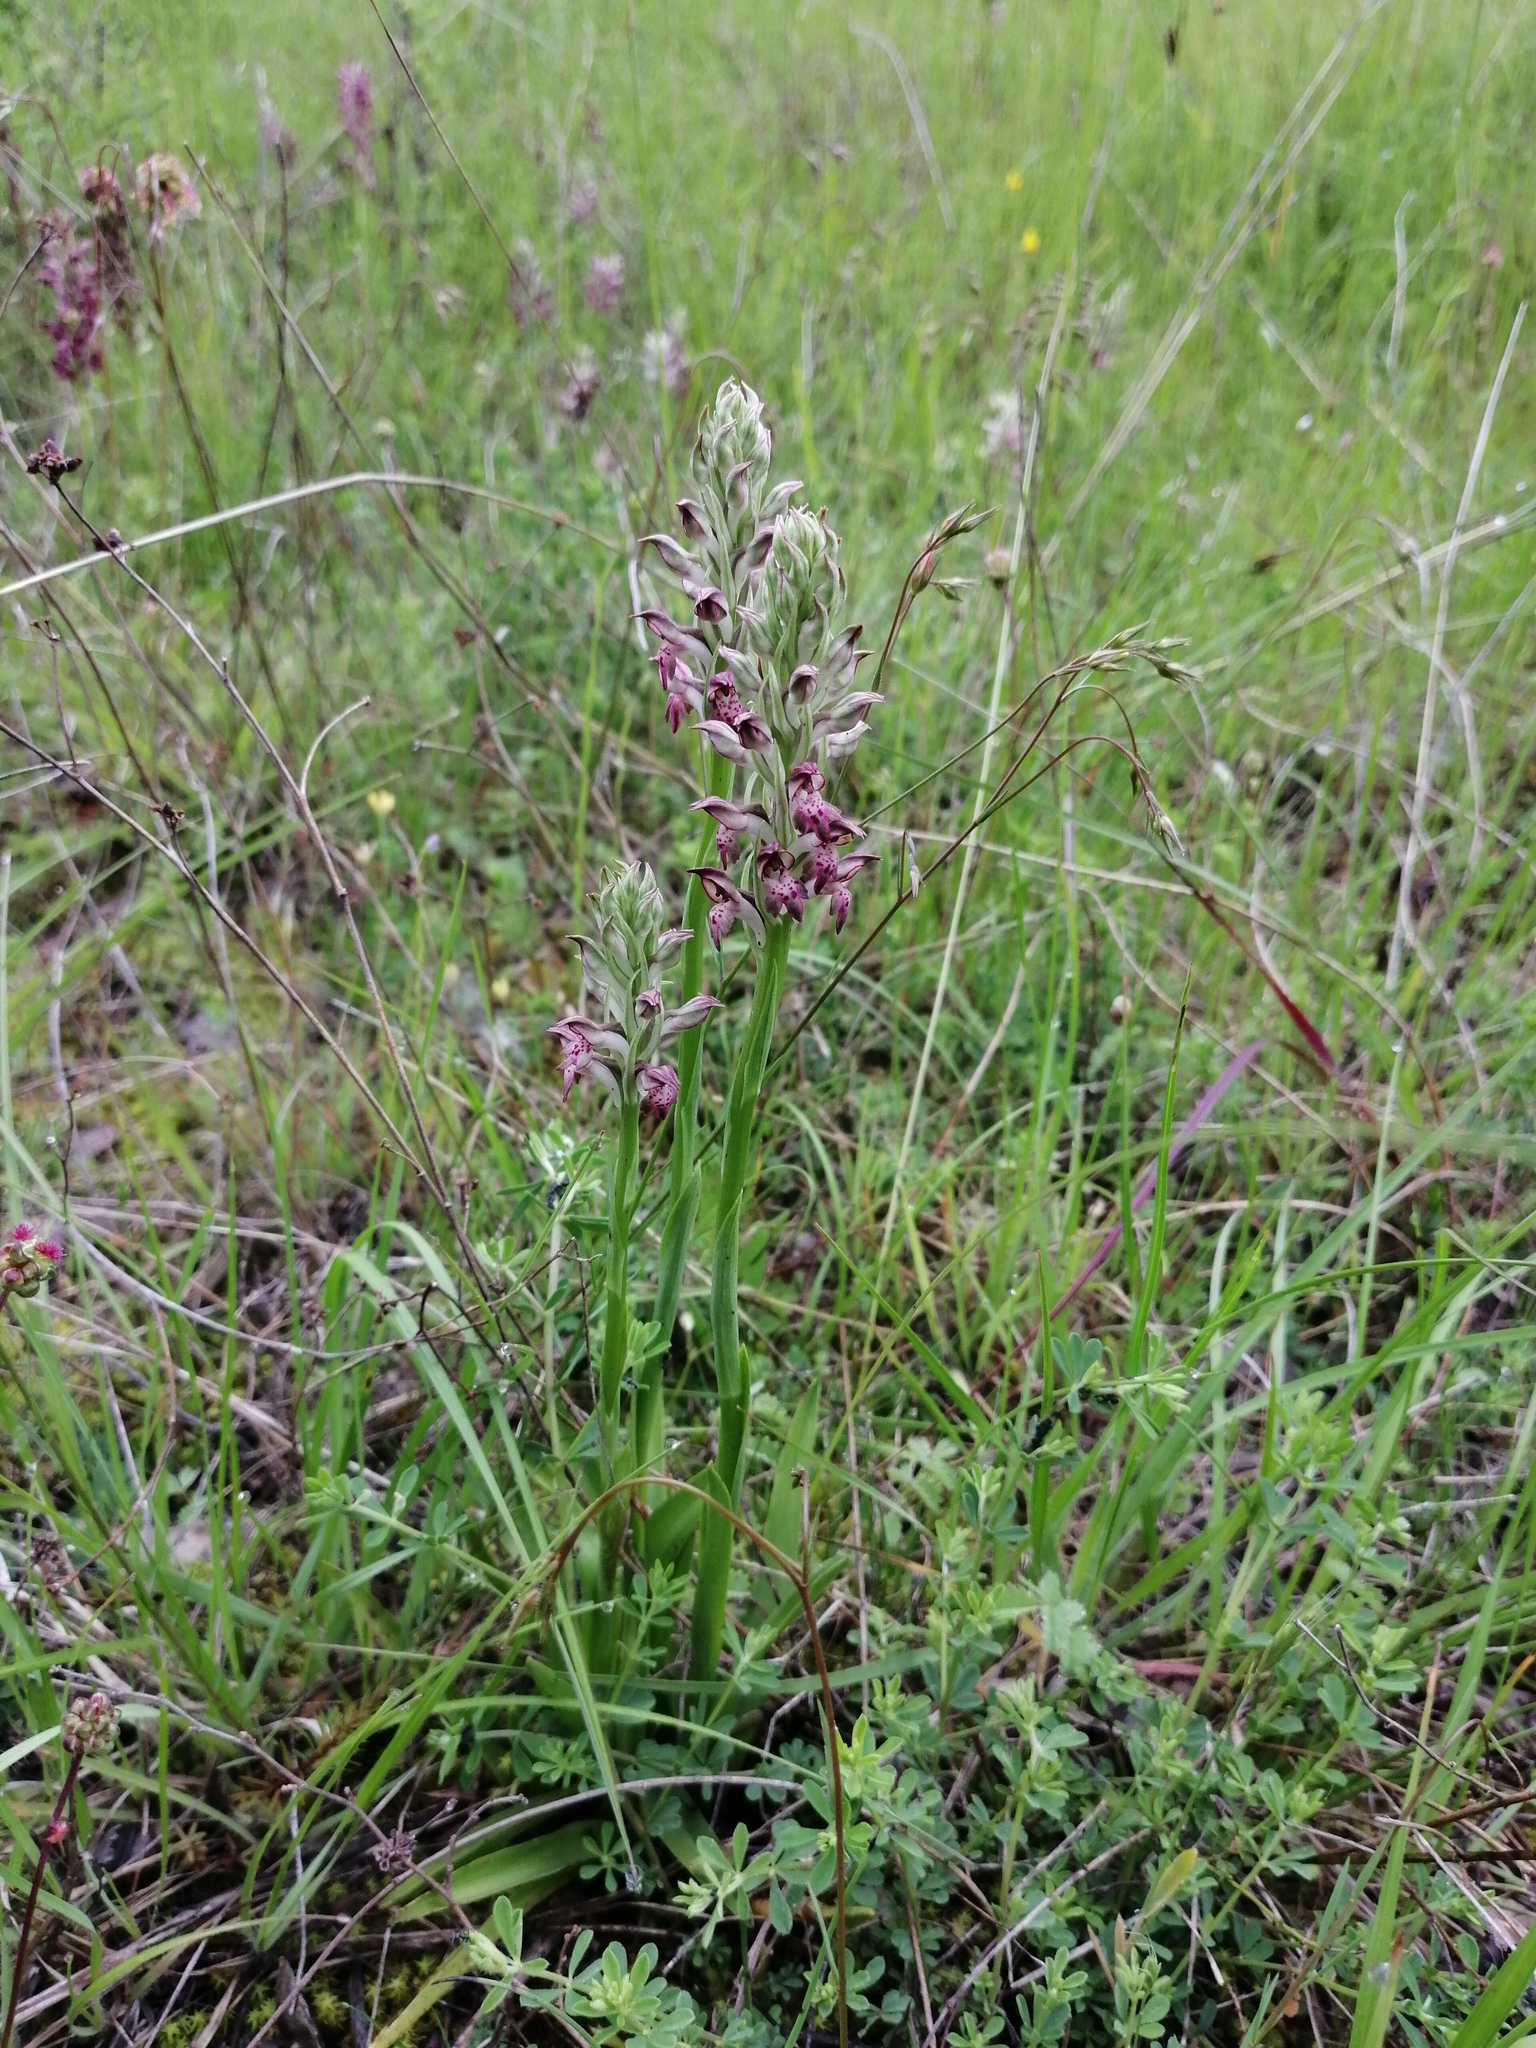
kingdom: Plantae
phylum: Tracheophyta
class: Liliopsida
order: Asparagales
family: Orchidaceae
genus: Anacamptis
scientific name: Anacamptis coriophora
